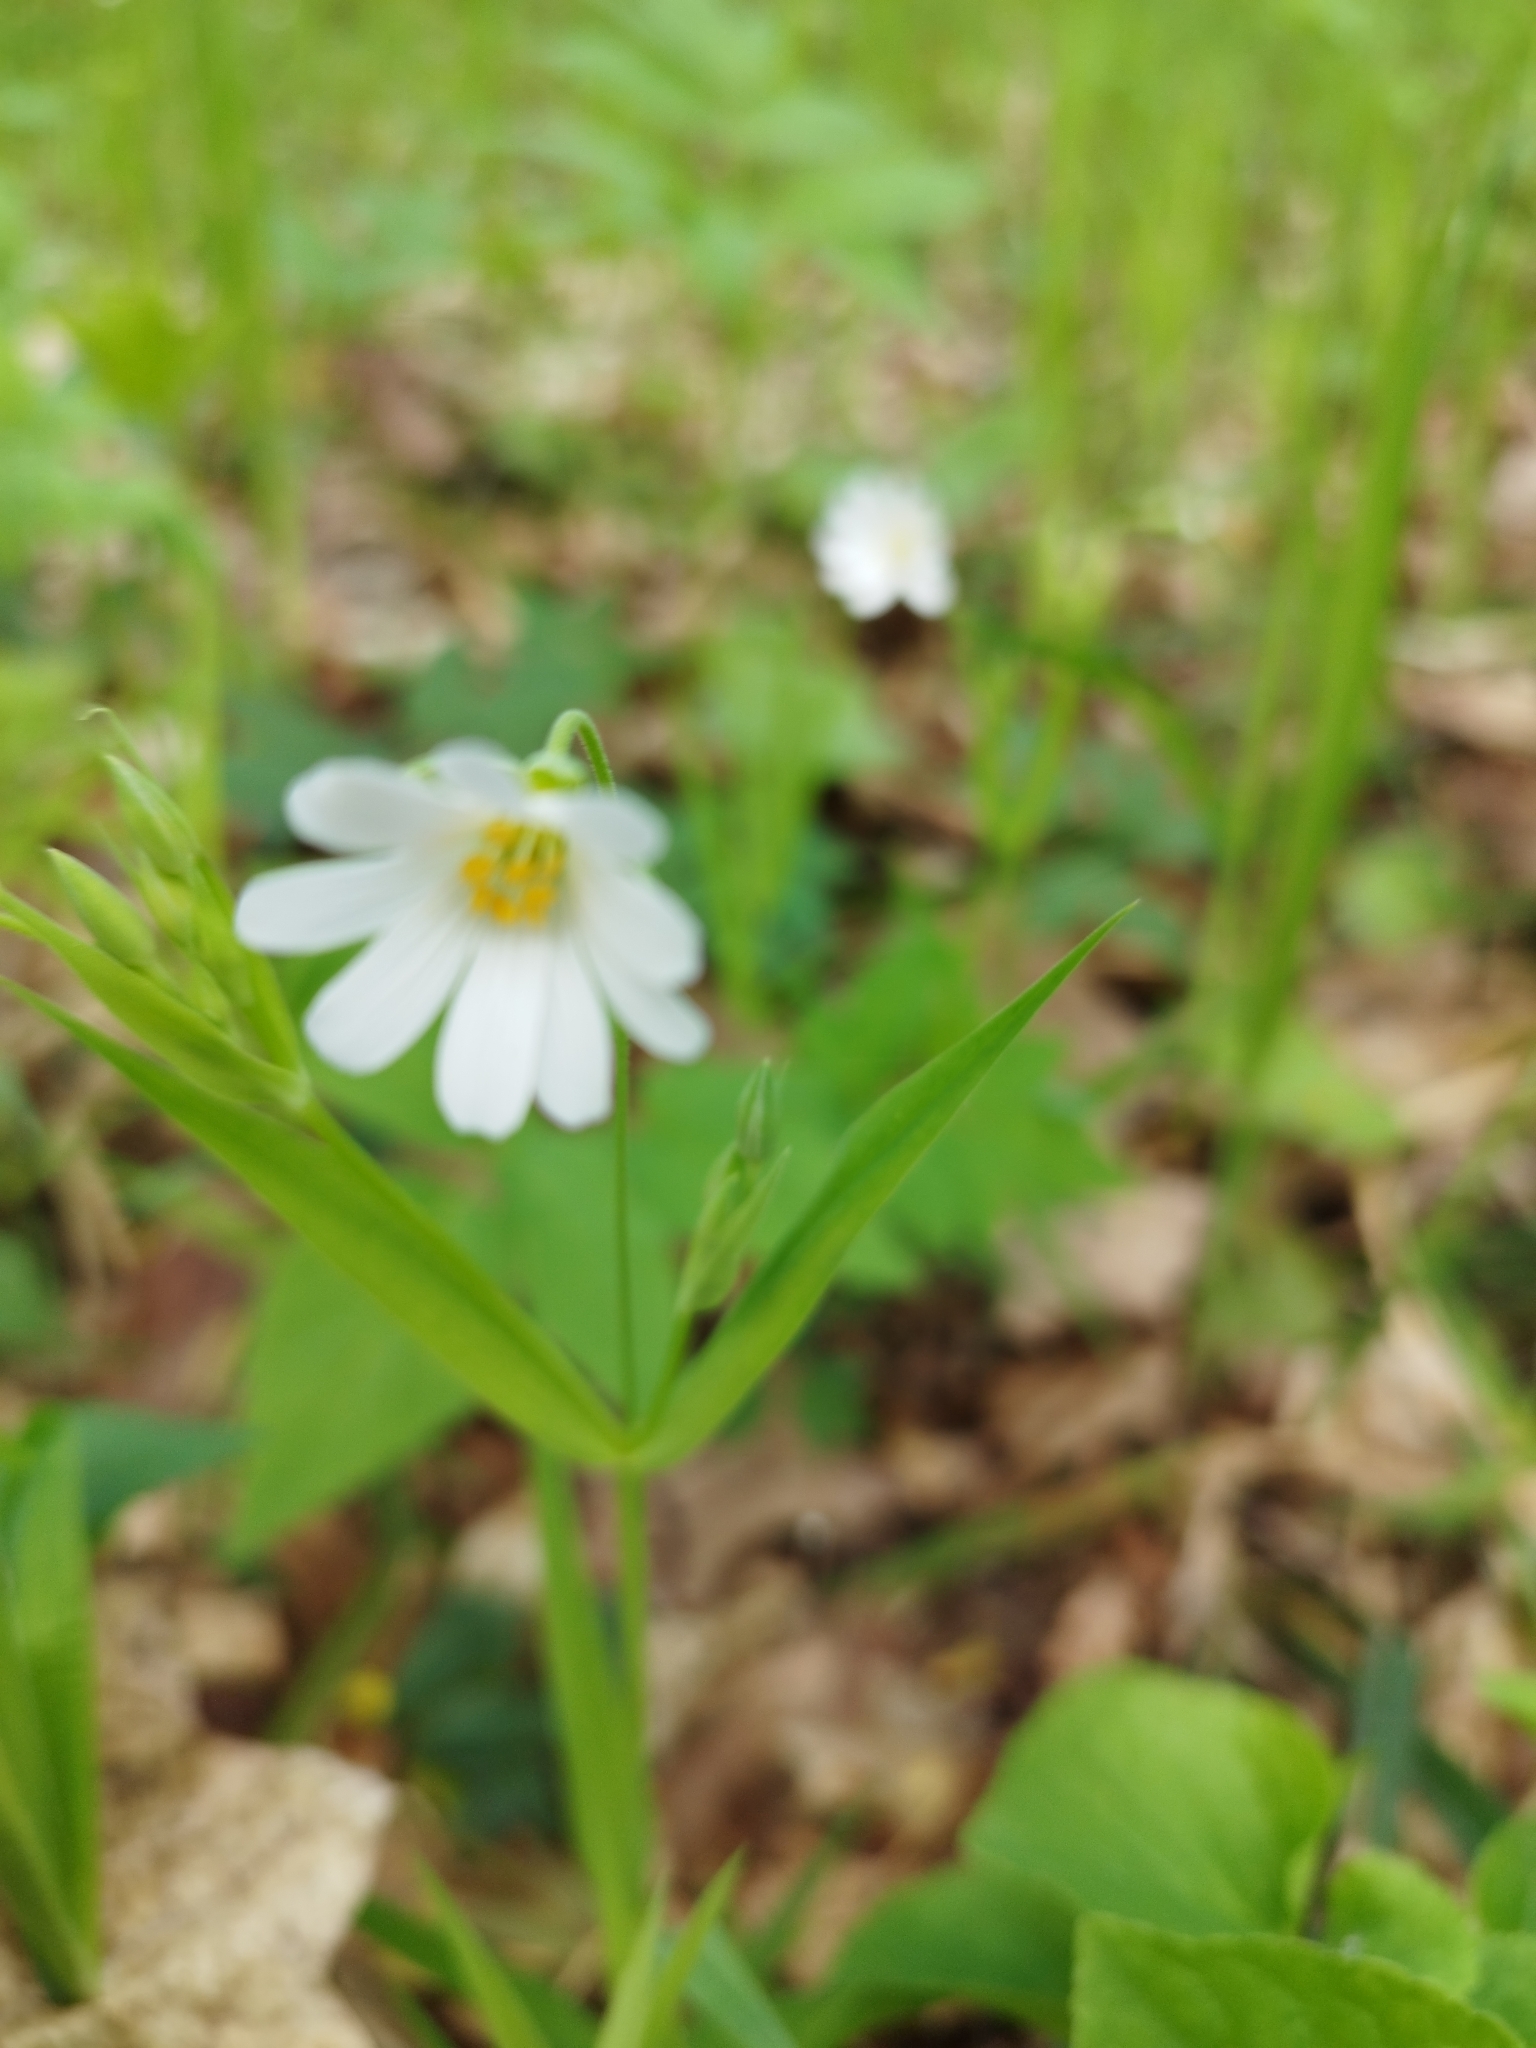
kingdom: Plantae
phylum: Tracheophyta
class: Magnoliopsida
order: Caryophyllales
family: Caryophyllaceae
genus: Rabelera
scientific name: Rabelera holostea
